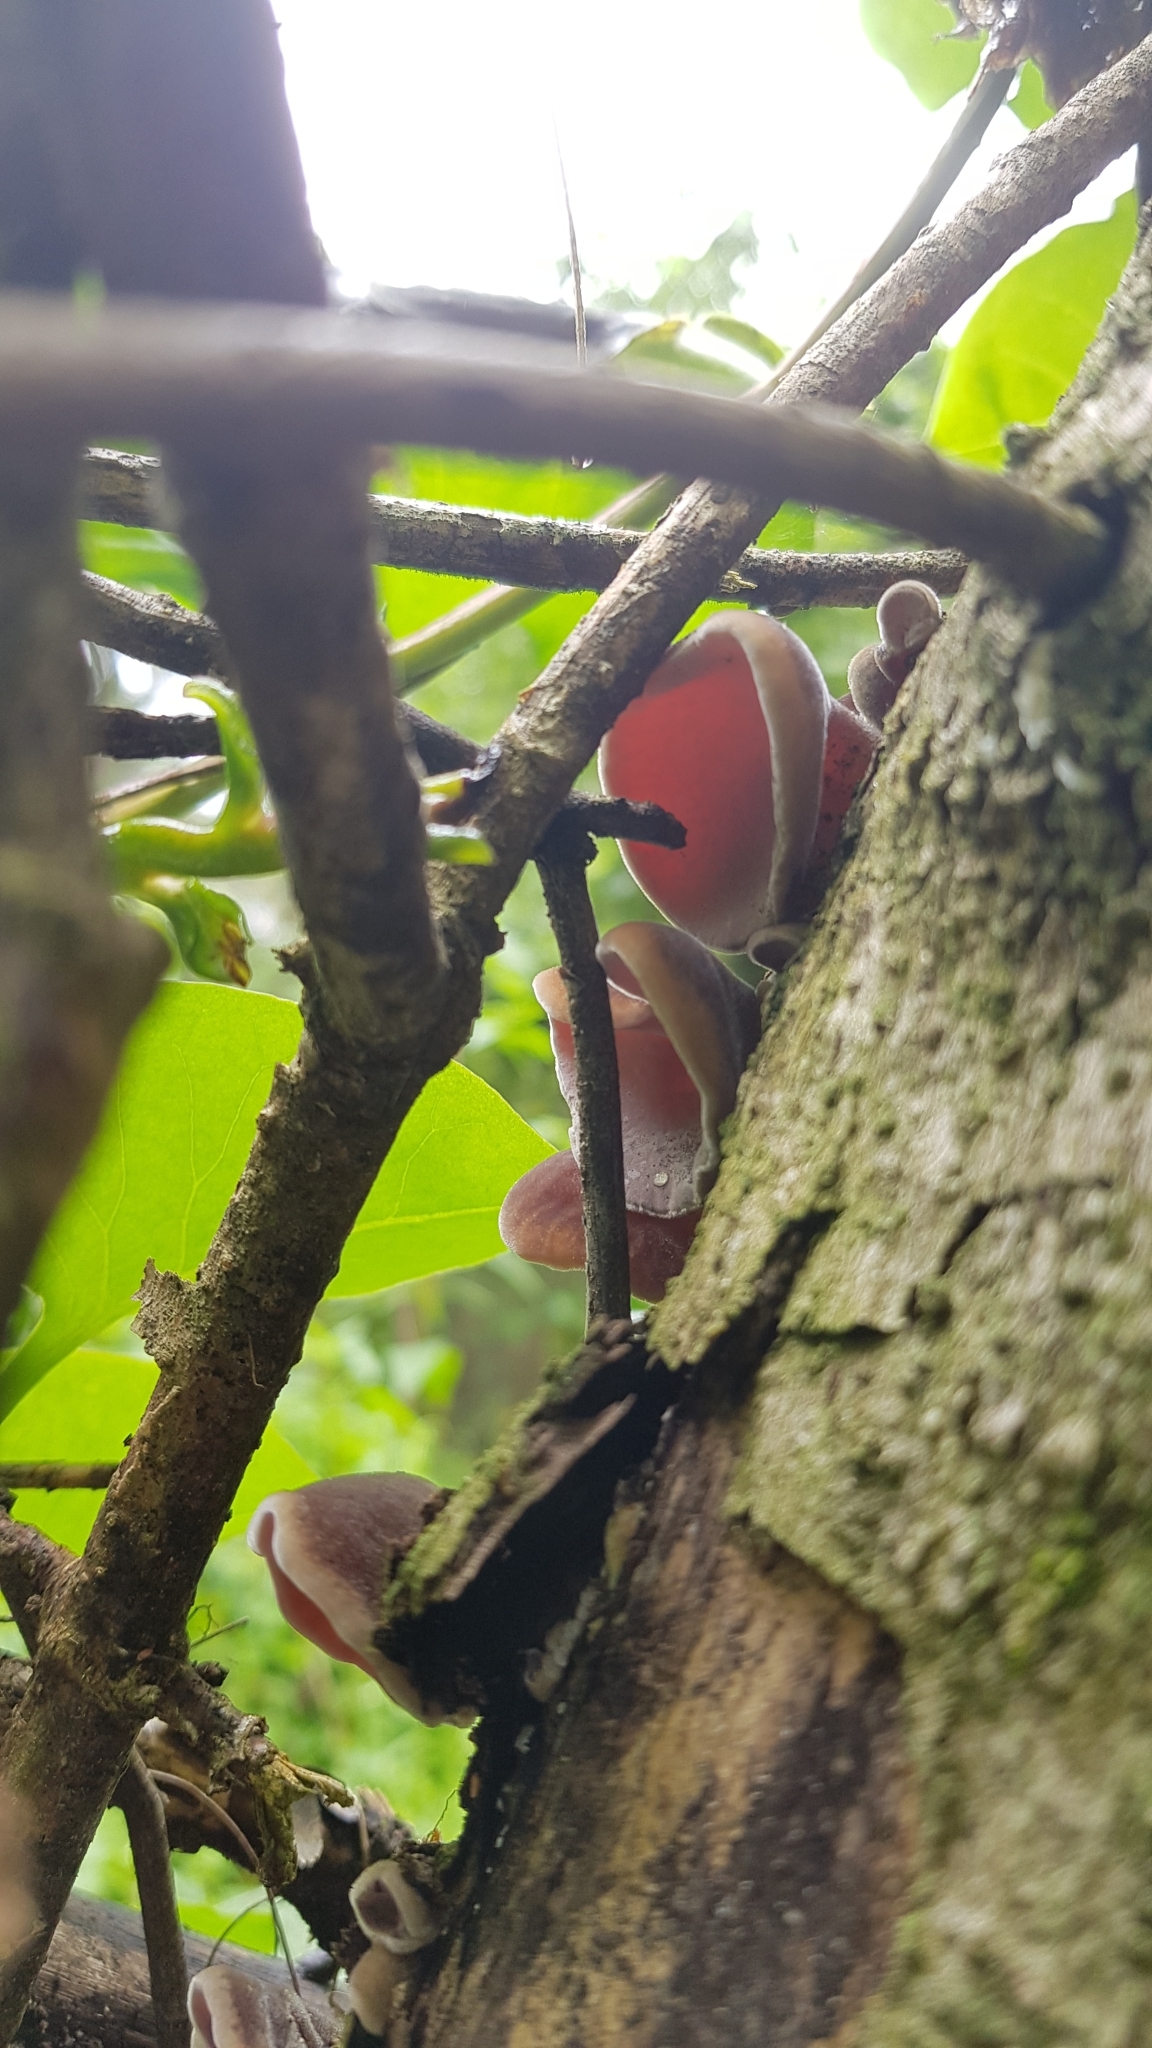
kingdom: Fungi
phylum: Basidiomycota
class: Agaricomycetes
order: Auriculariales
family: Auriculariaceae
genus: Auricularia
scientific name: Auricularia cornea
